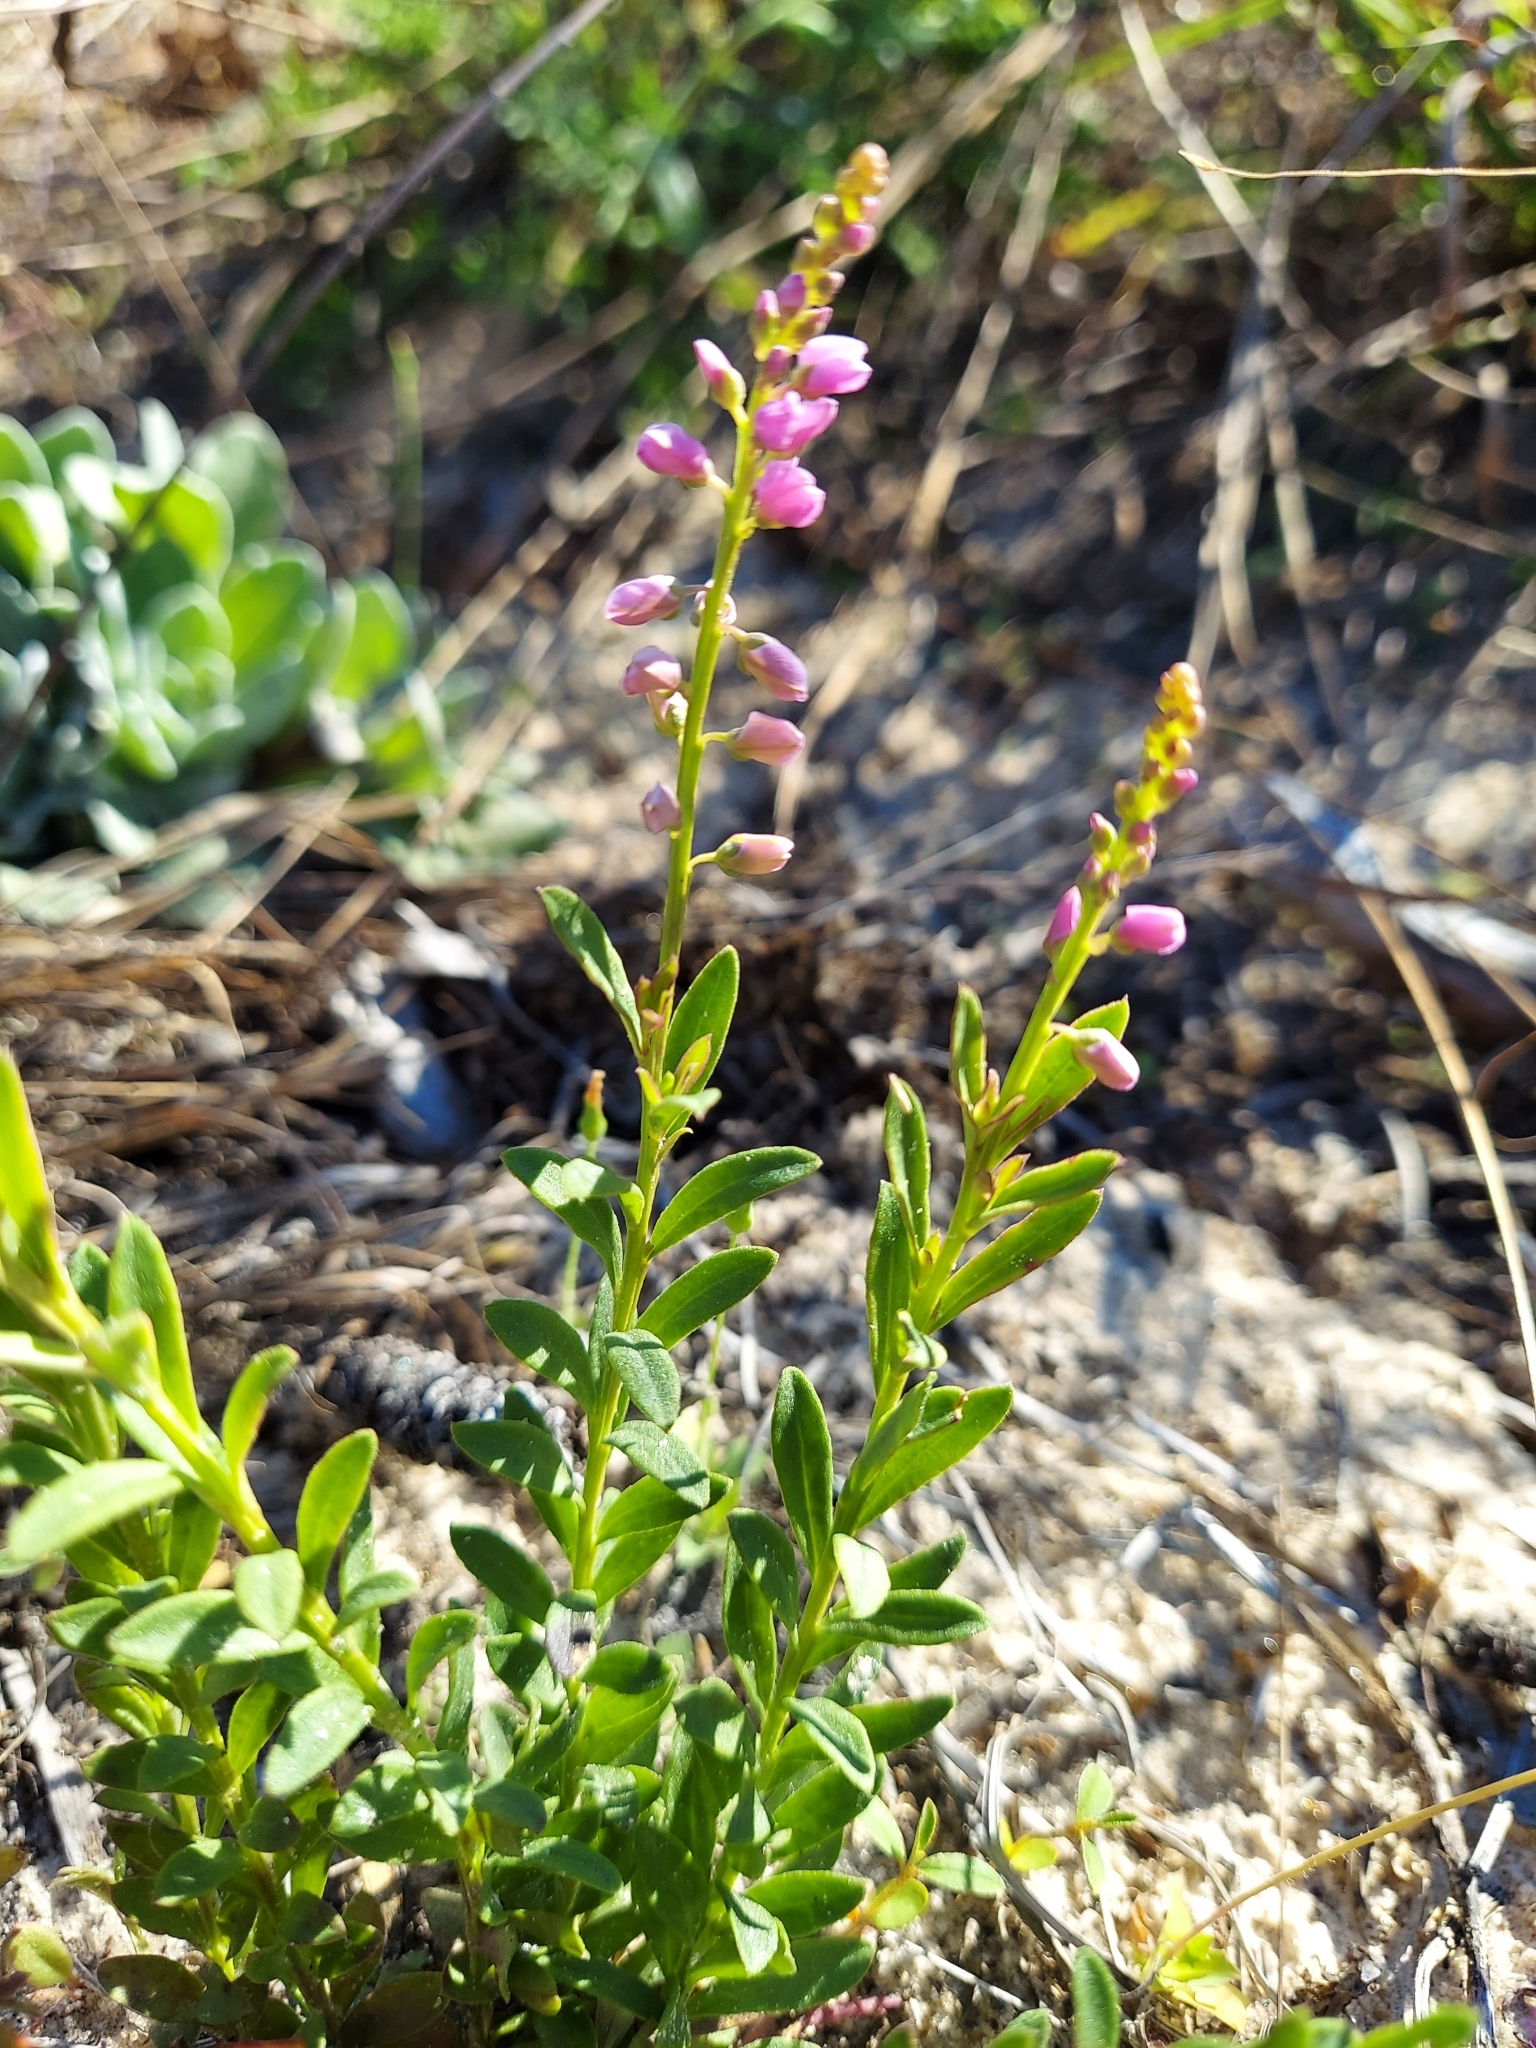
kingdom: Plantae
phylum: Tracheophyta
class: Magnoliopsida
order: Fabales
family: Polygalaceae
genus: Polygala
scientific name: Polygala polygama
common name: Bitter milkwort
